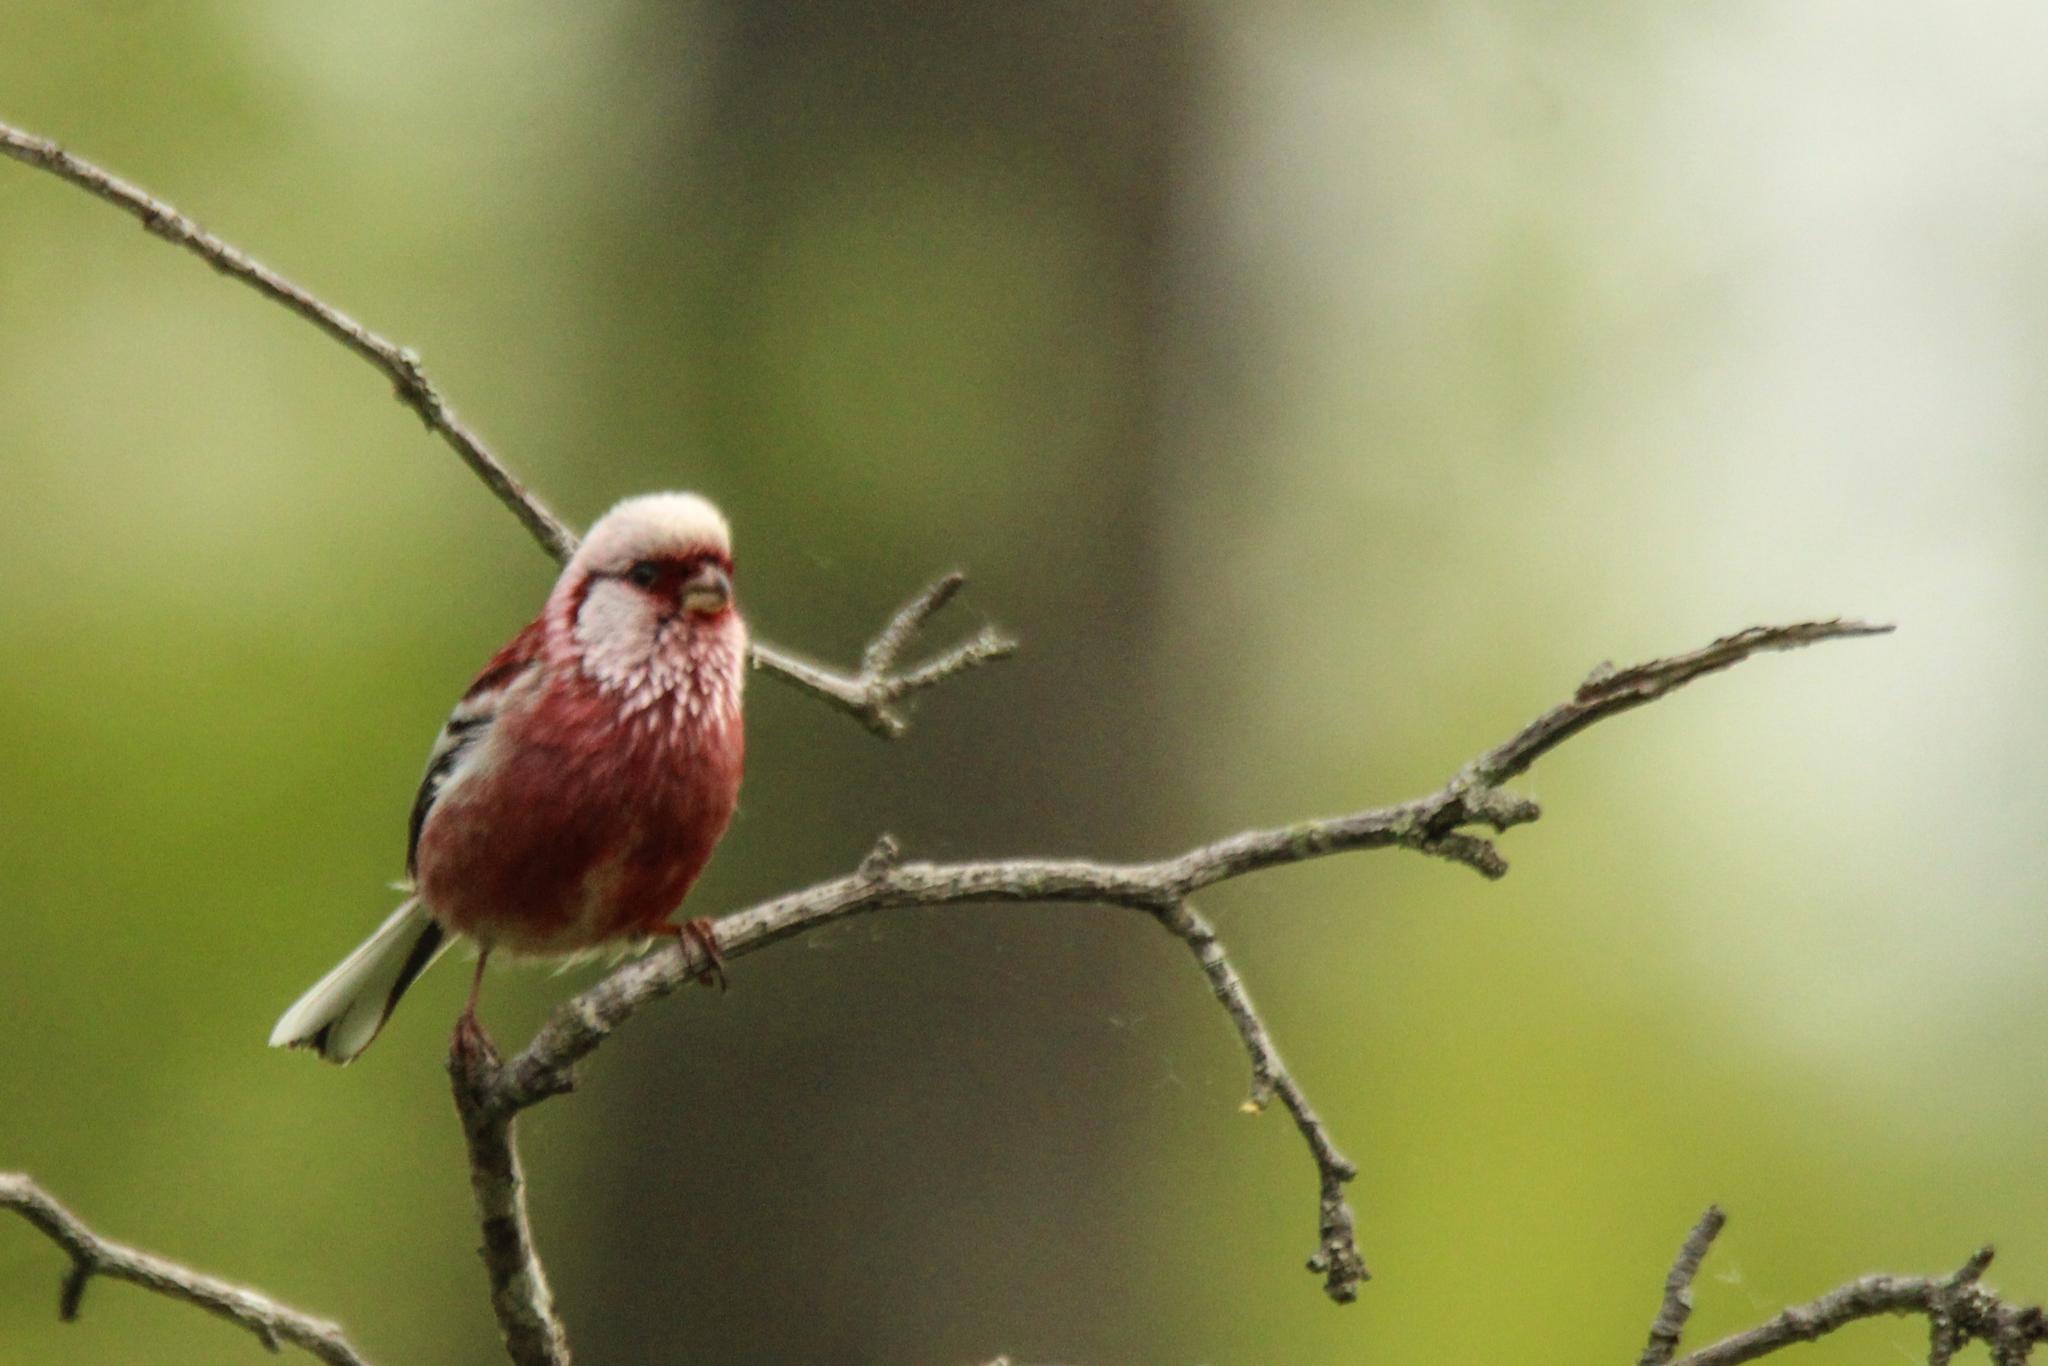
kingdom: Animalia
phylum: Chordata
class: Aves
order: Passeriformes
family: Fringillidae
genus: Carpodacus
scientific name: Carpodacus sibiricus
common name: Long-tailed rosefinch
